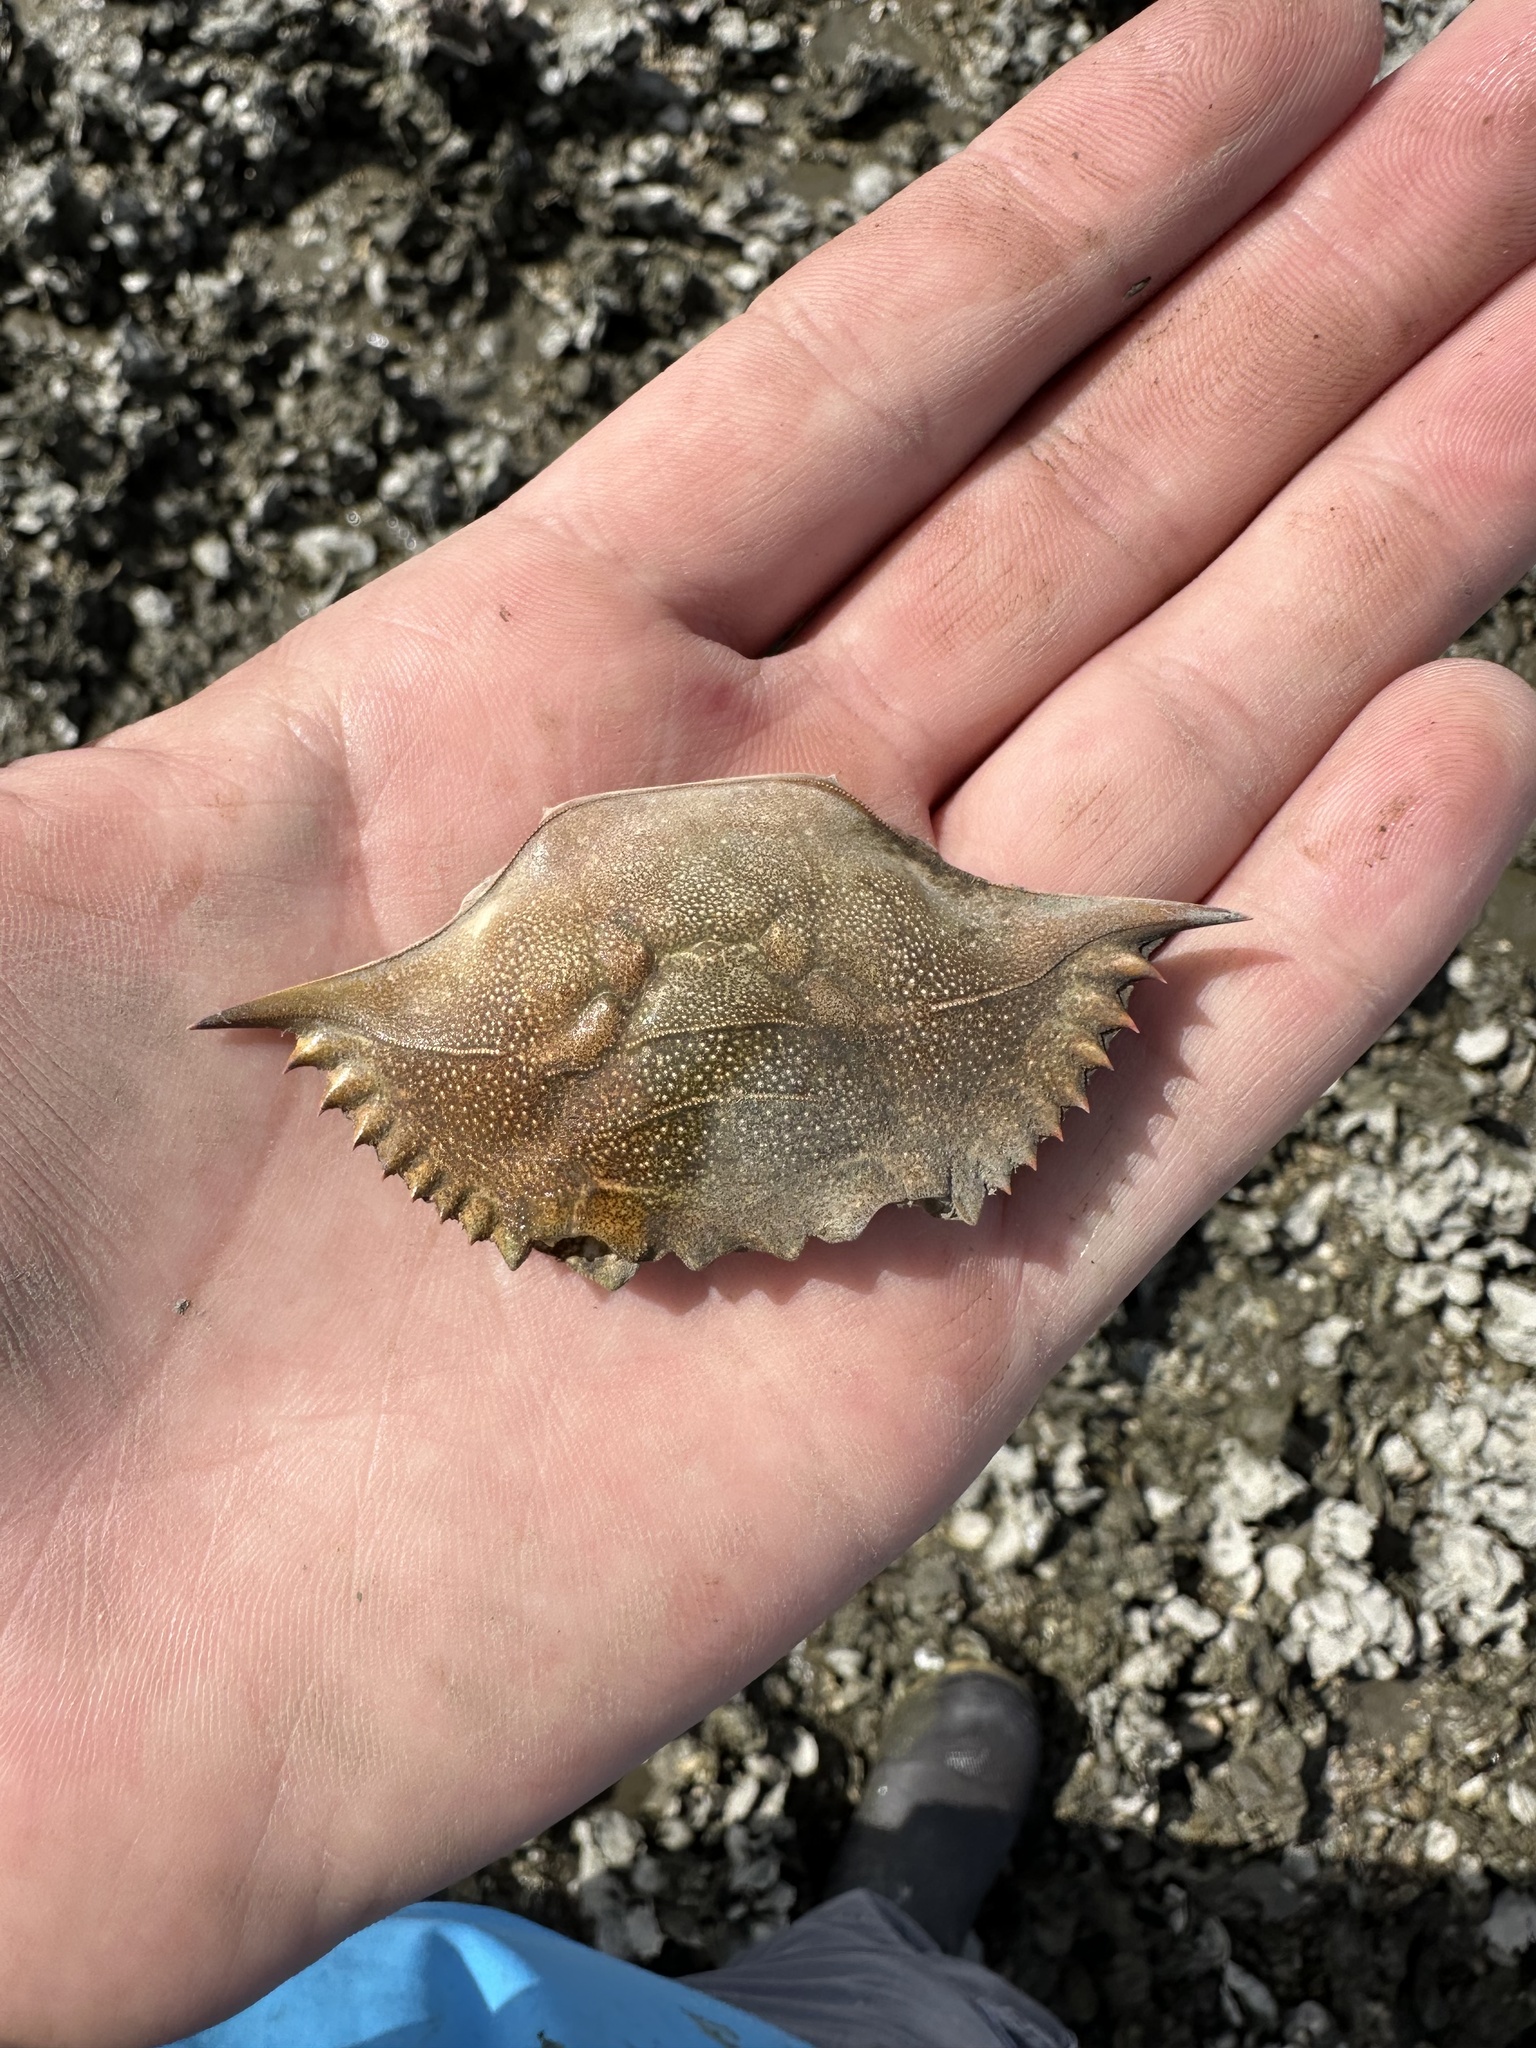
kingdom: Animalia
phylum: Arthropoda
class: Malacostraca
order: Decapoda
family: Portunidae
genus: Callinectes
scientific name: Callinectes sapidus
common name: Blue crab
